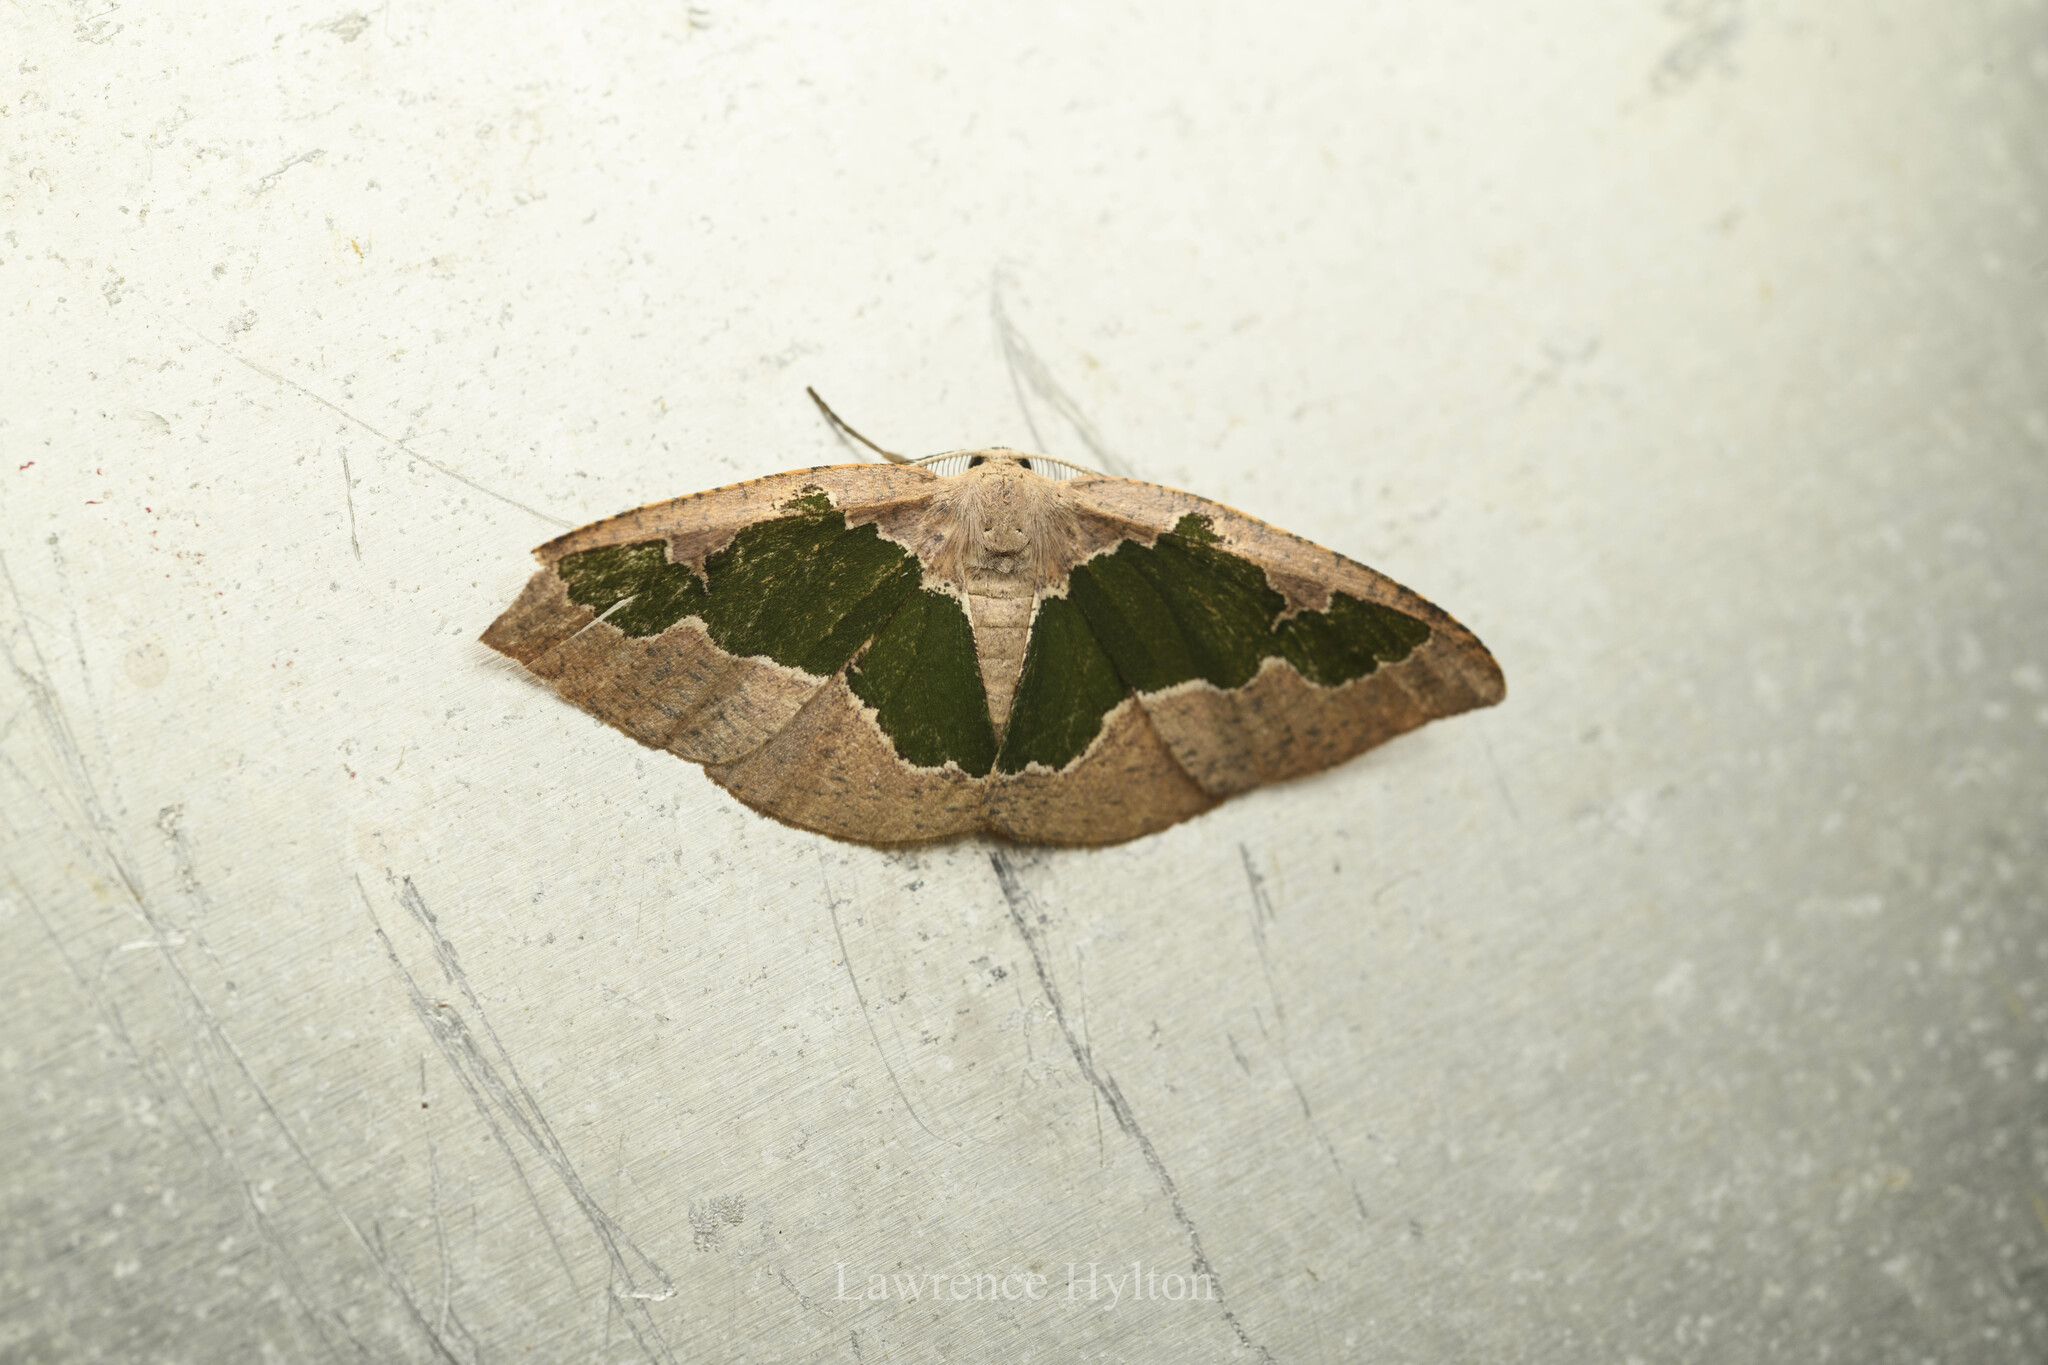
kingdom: Animalia
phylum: Arthropoda
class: Insecta
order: Lepidoptera
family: Geometridae
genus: Celenna
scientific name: Celenna festivaria
